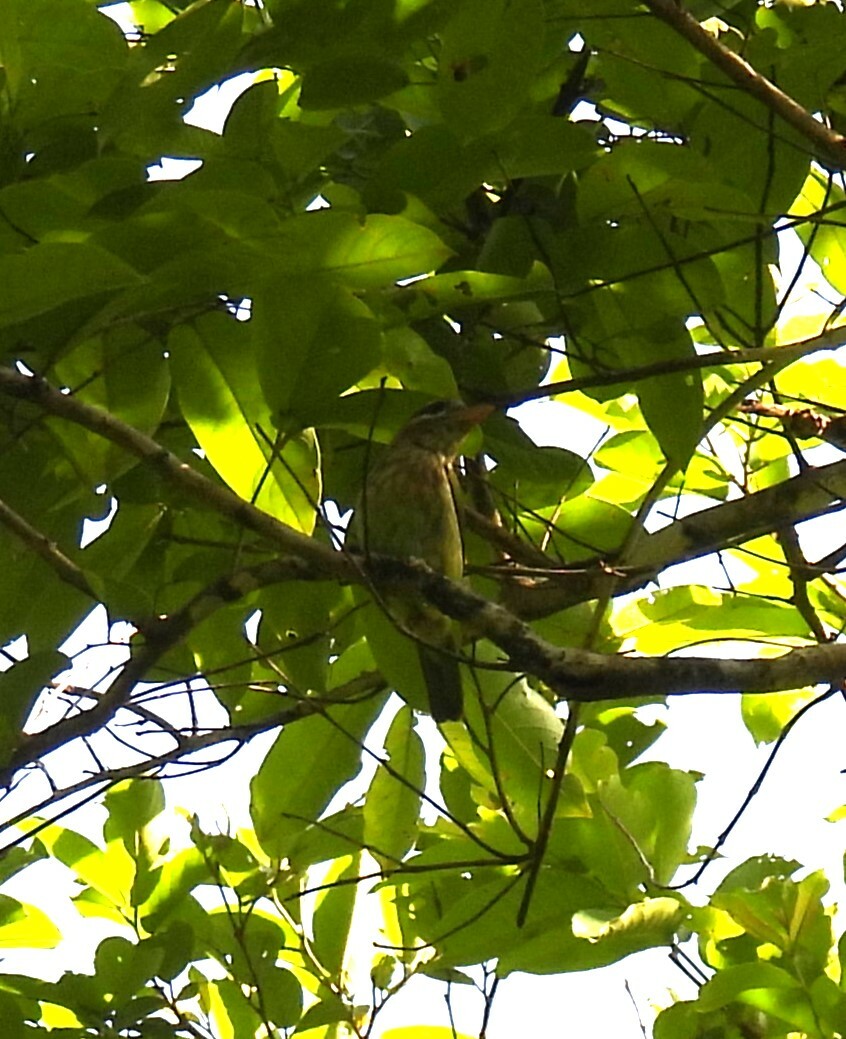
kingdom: Animalia
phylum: Chordata
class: Aves
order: Piciformes
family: Megalaimidae
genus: Psilopogon
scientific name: Psilopogon viridis
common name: White-cheeked barbet
